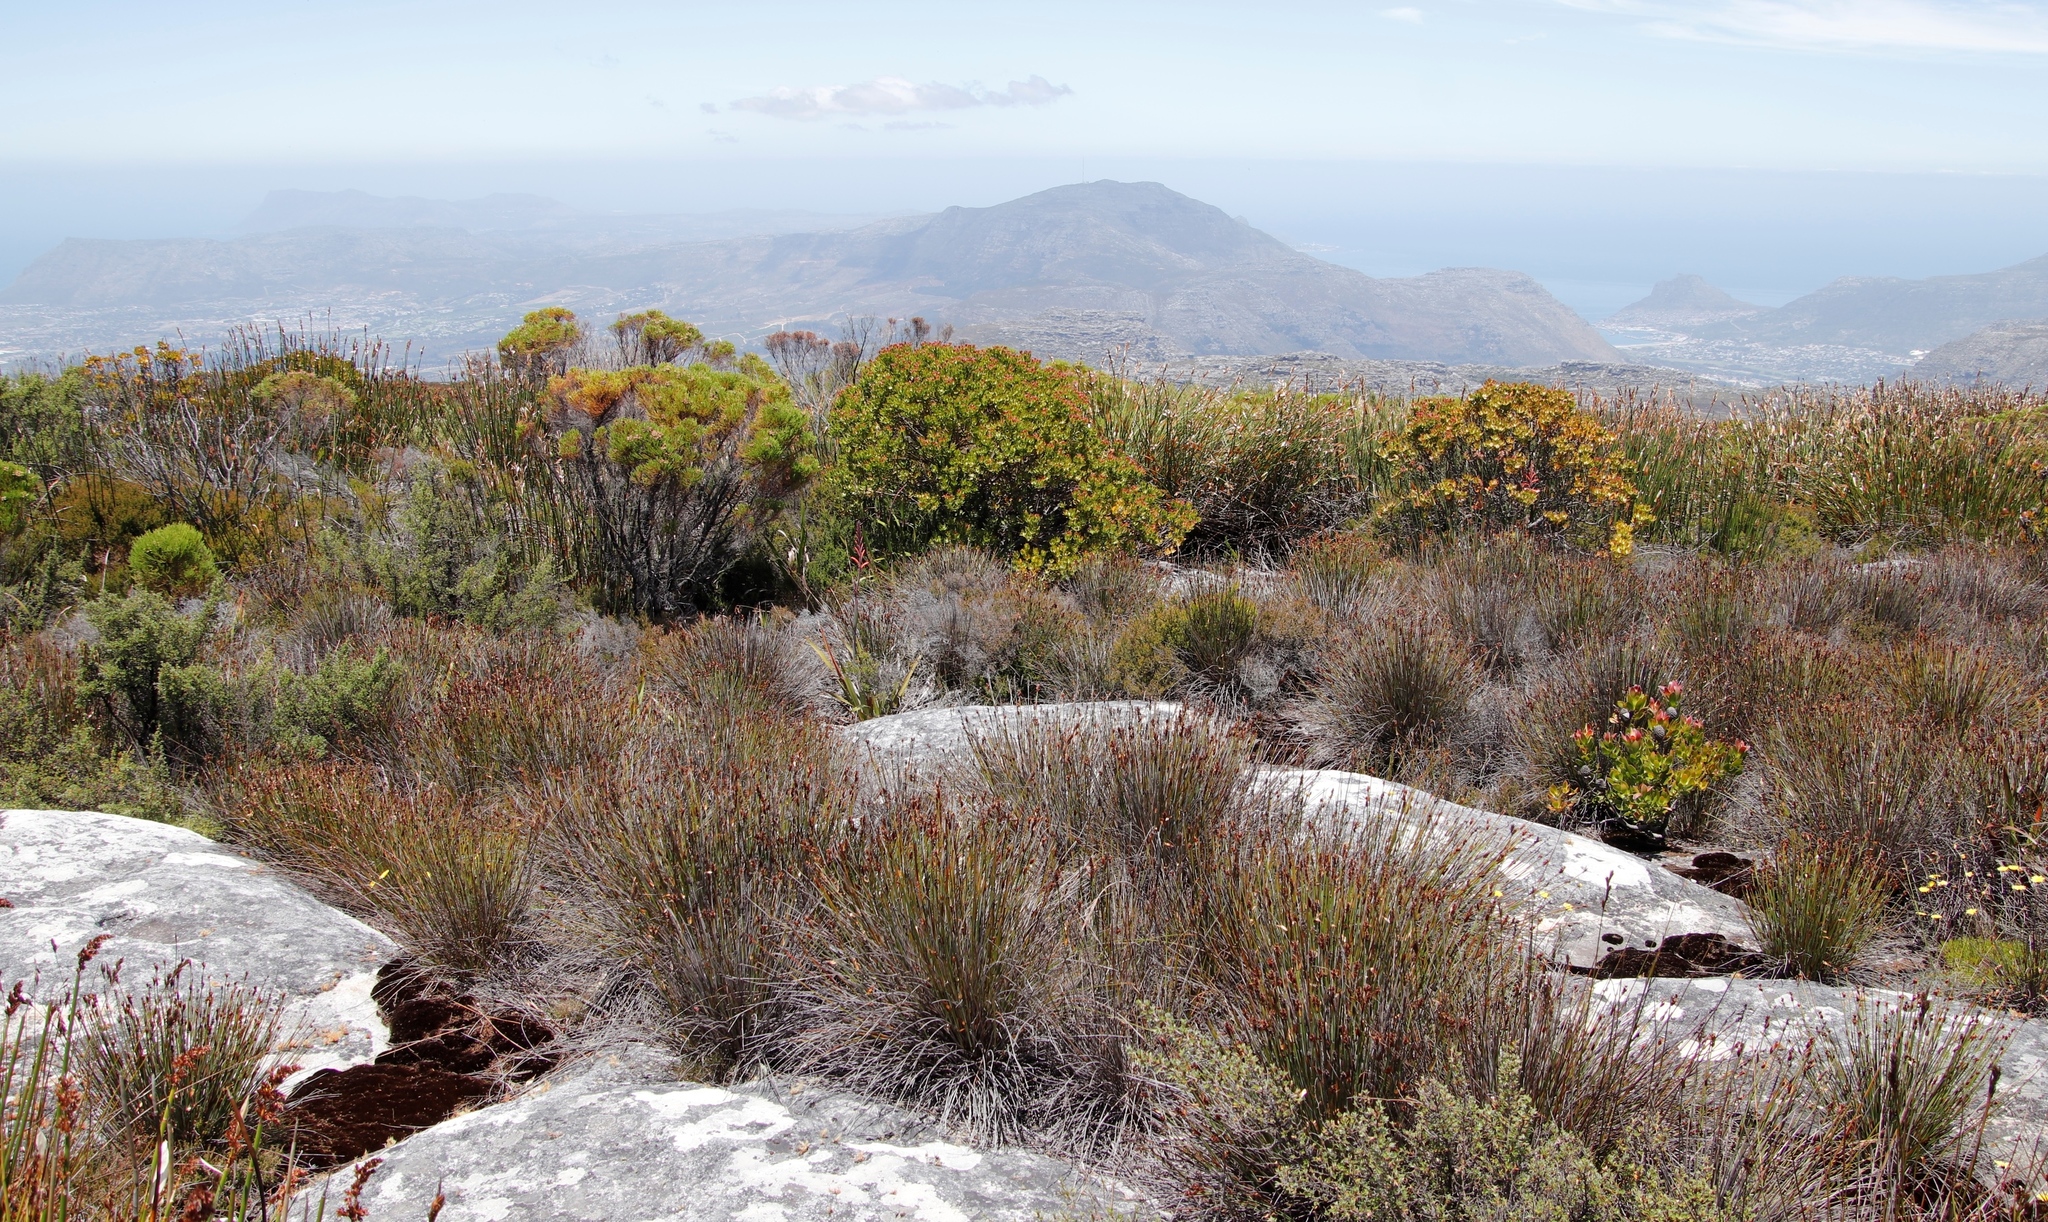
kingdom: Plantae
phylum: Tracheophyta
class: Magnoliopsida
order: Proteales
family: Proteaceae
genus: Leucadendron
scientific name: Leucadendron strobilinum
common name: Mountain rose
